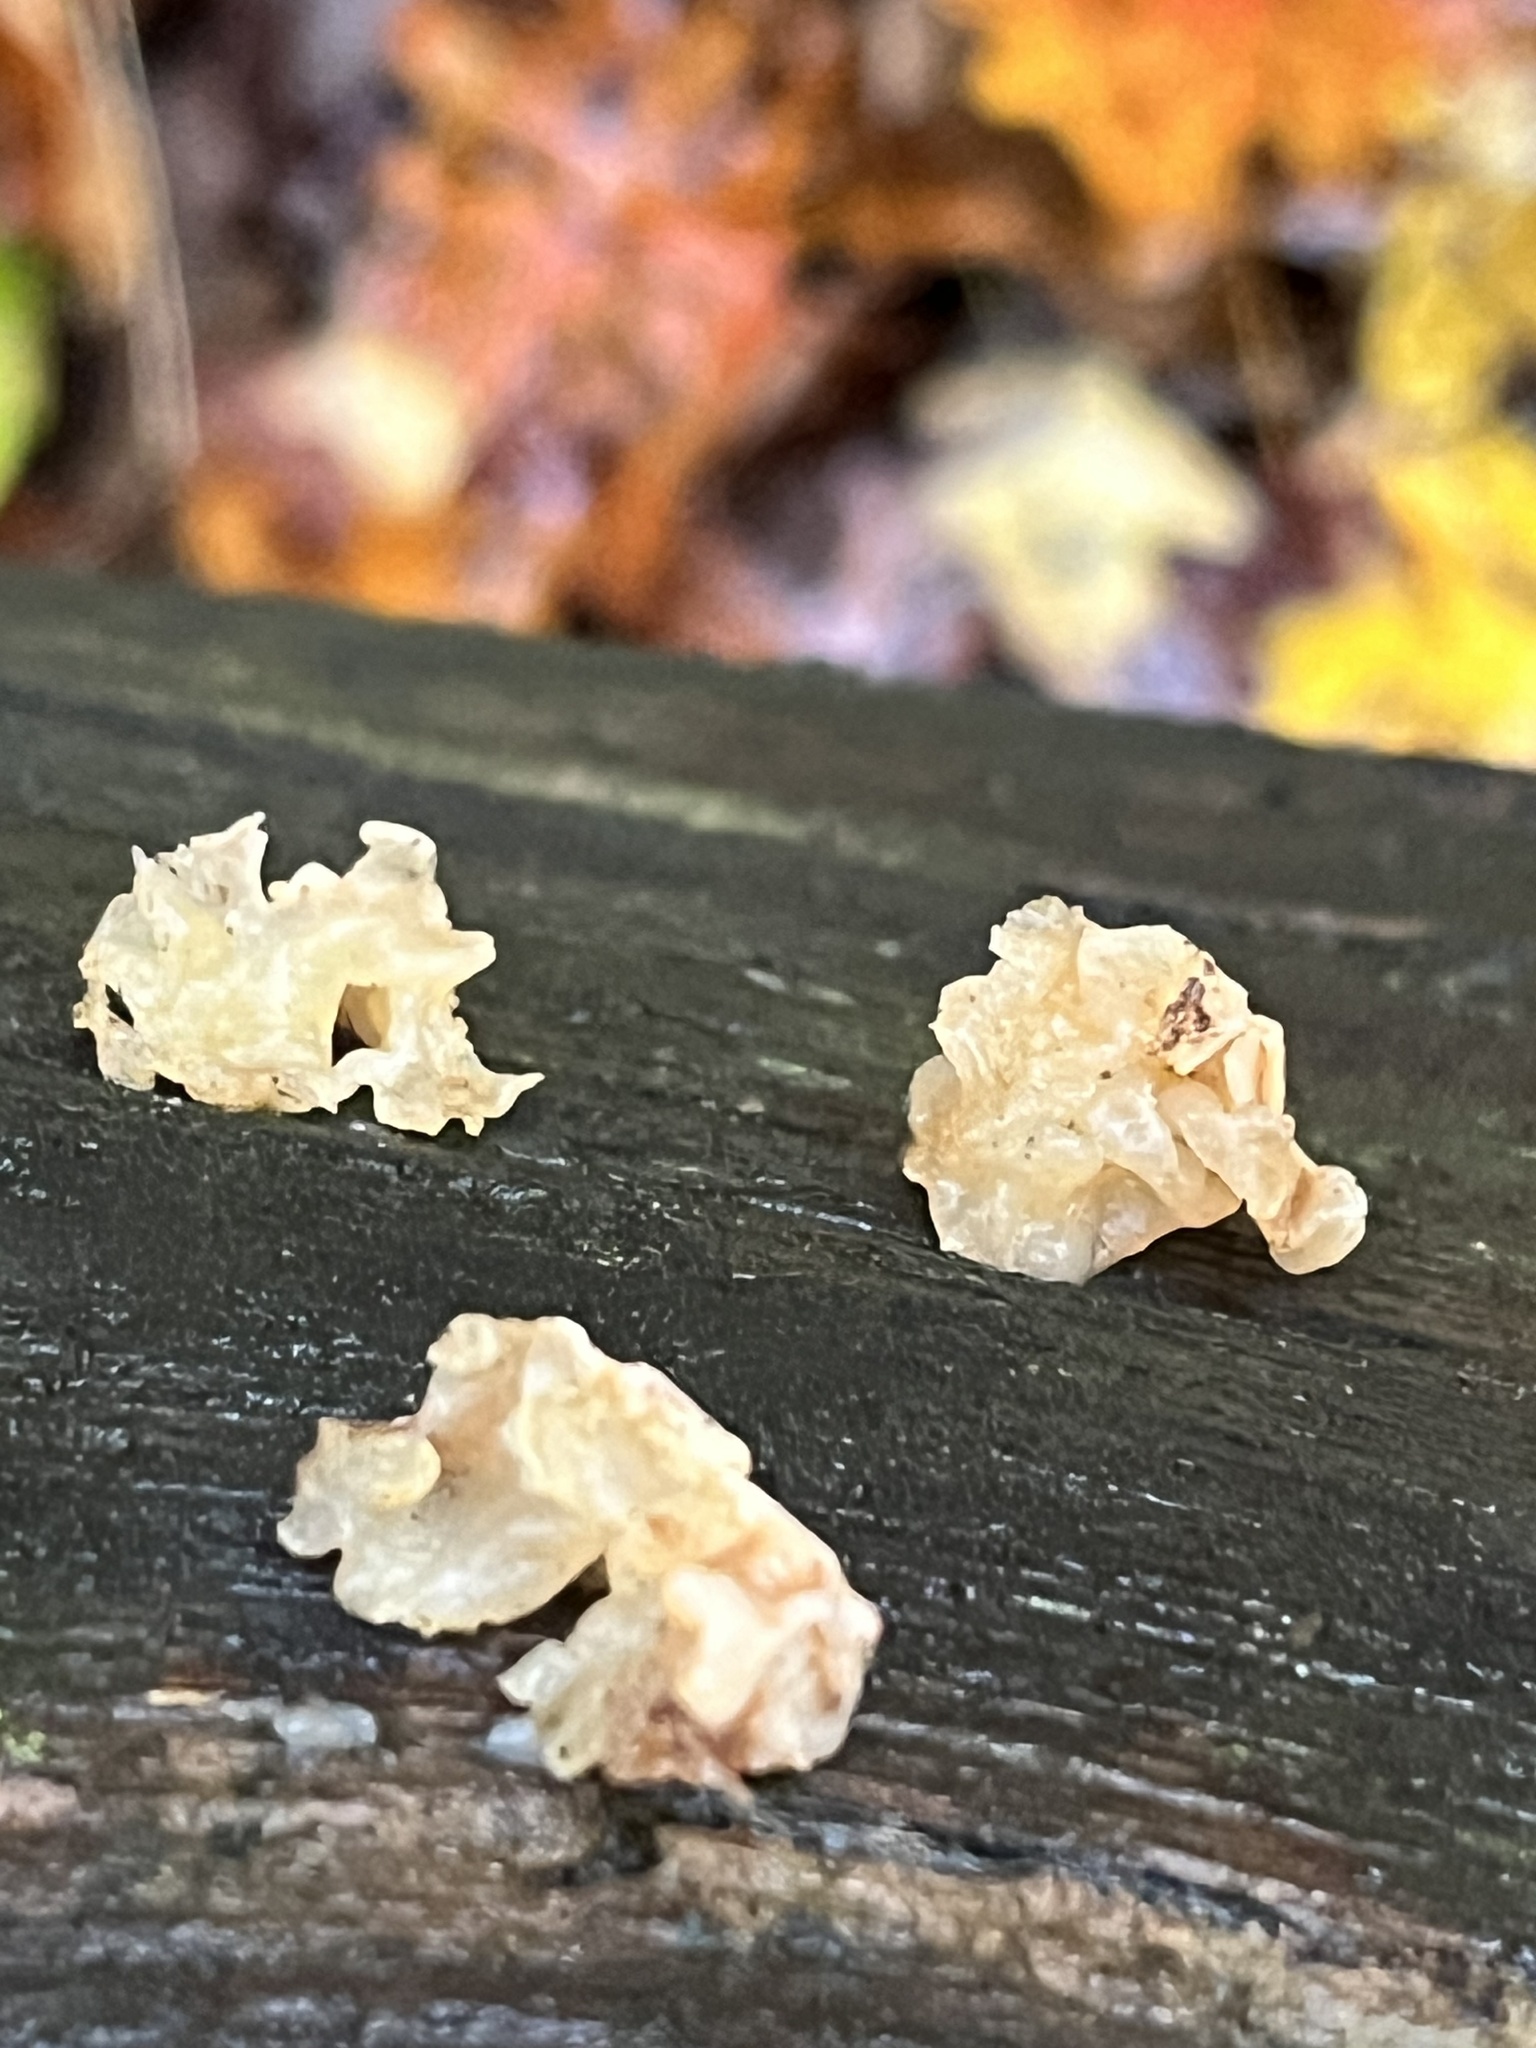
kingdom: Fungi
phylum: Basidiomycota
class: Agaricomycetes
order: Auriculariales
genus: Ductifera
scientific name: Ductifera pululahuana
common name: White jelly fungus
